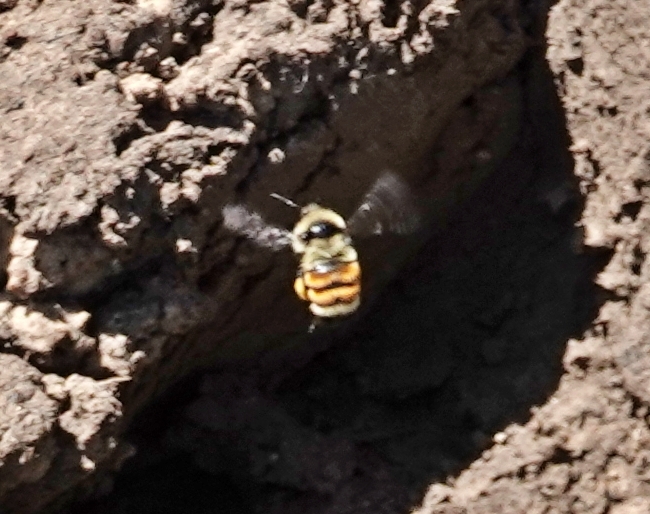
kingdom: Animalia
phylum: Arthropoda
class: Insecta
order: Hymenoptera
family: Apidae
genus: Bombus
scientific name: Bombus huntii
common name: Hunt bumble bee
